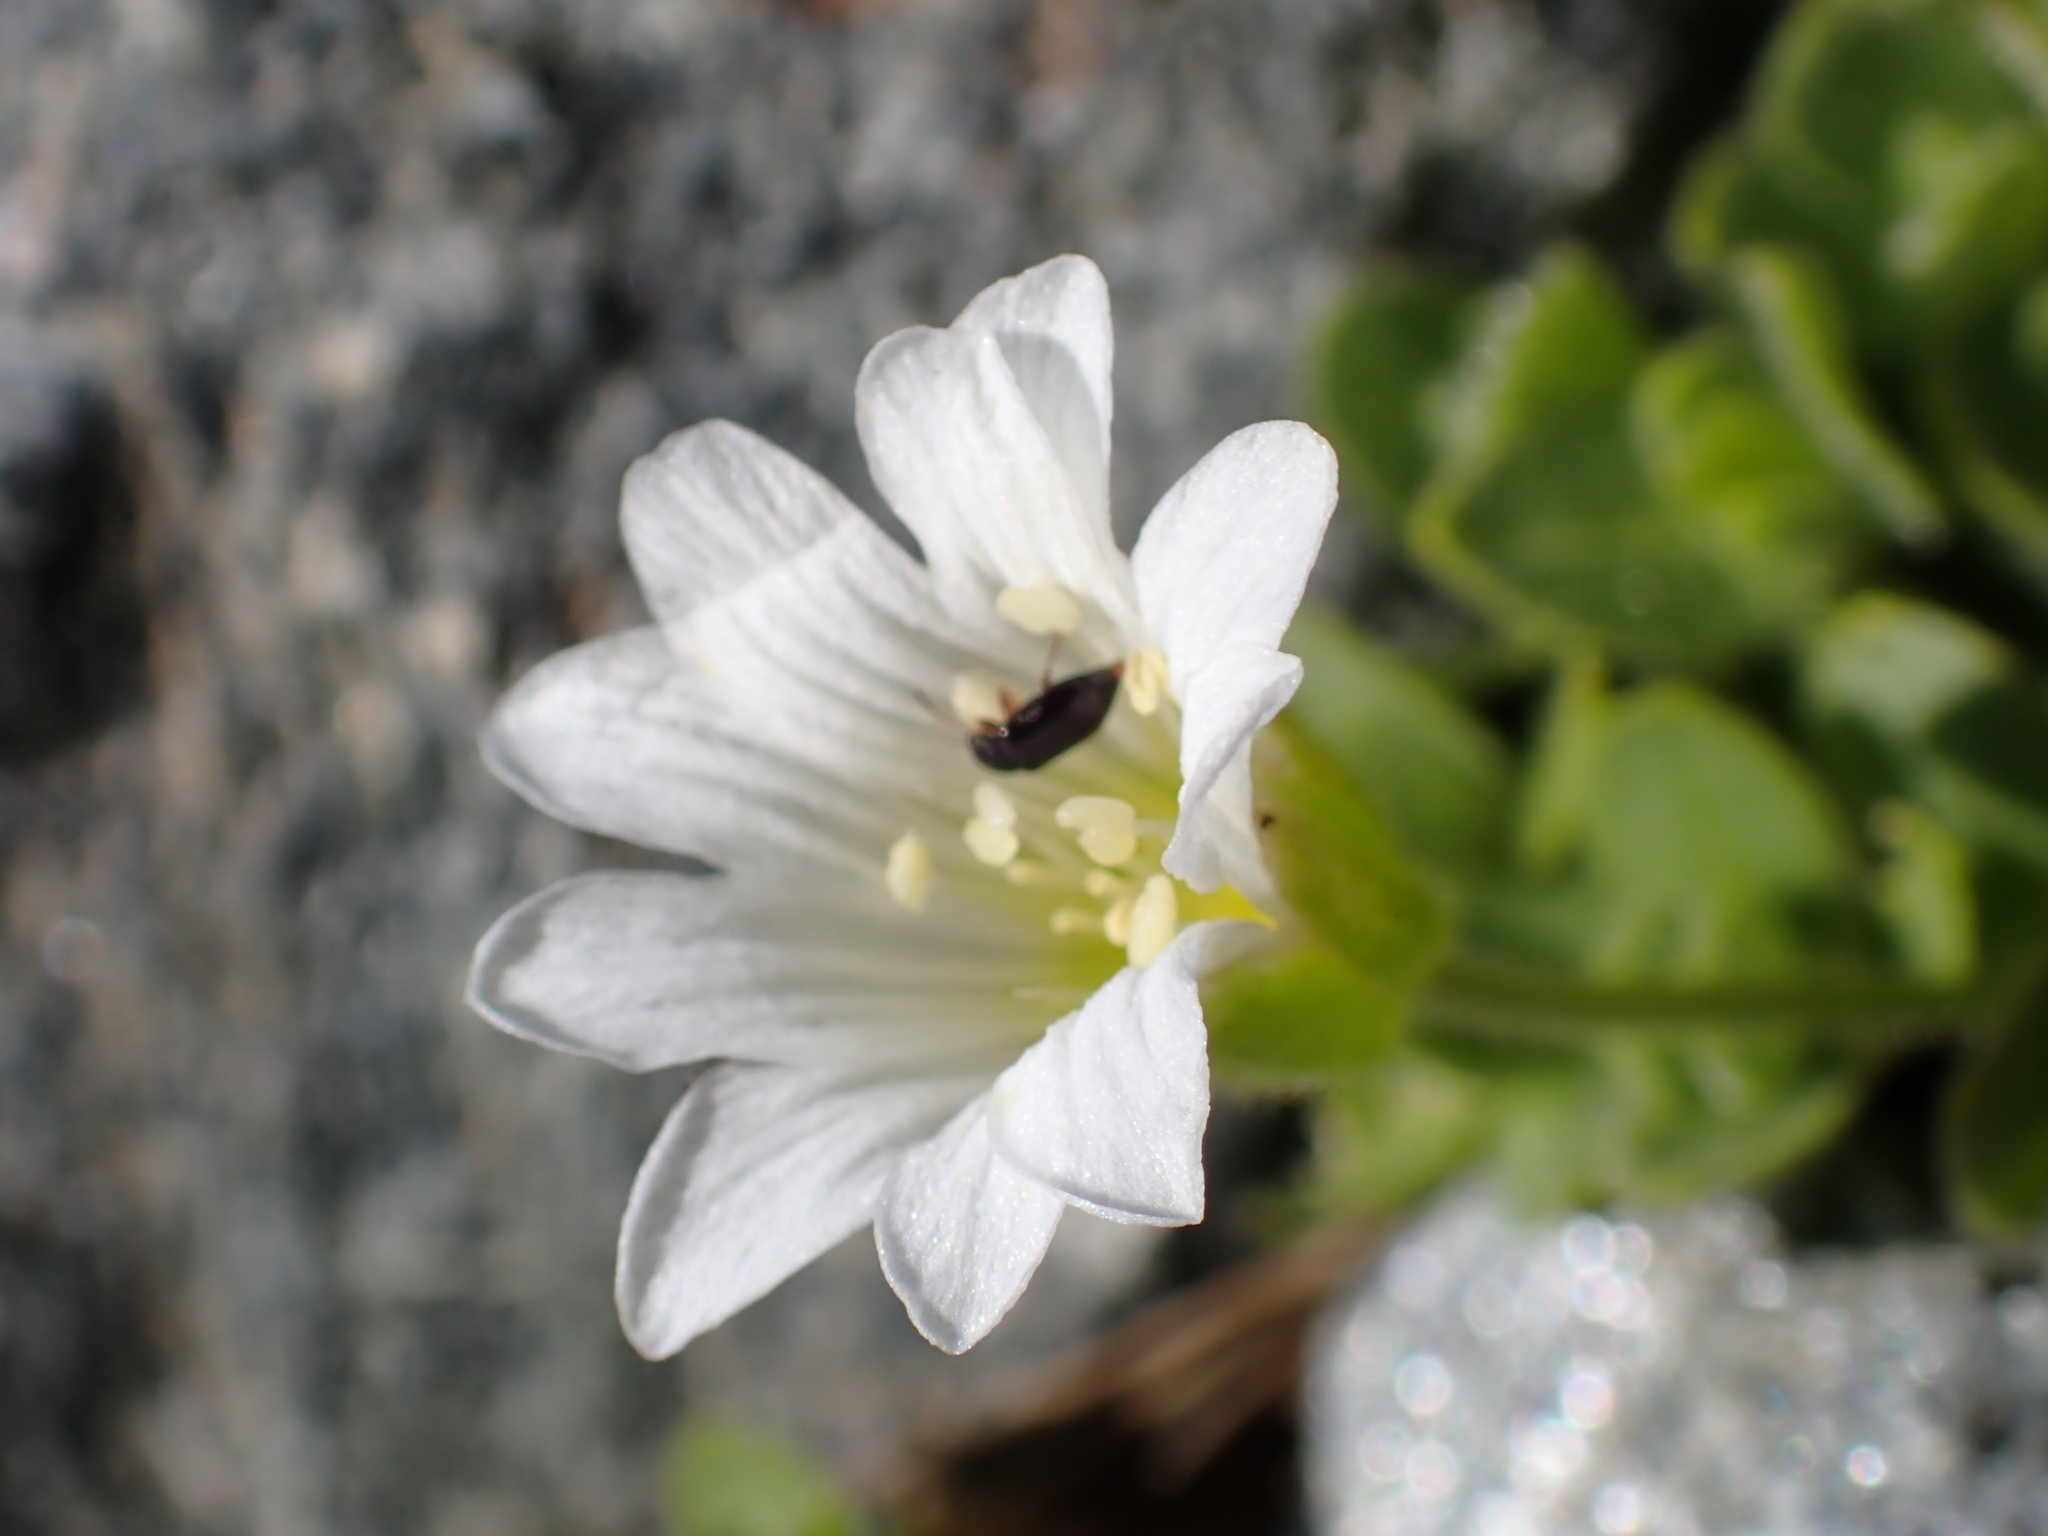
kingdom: Plantae
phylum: Tracheophyta
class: Magnoliopsida
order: Caryophyllales
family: Caryophyllaceae
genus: Cerastium
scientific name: Cerastium uniflorum
